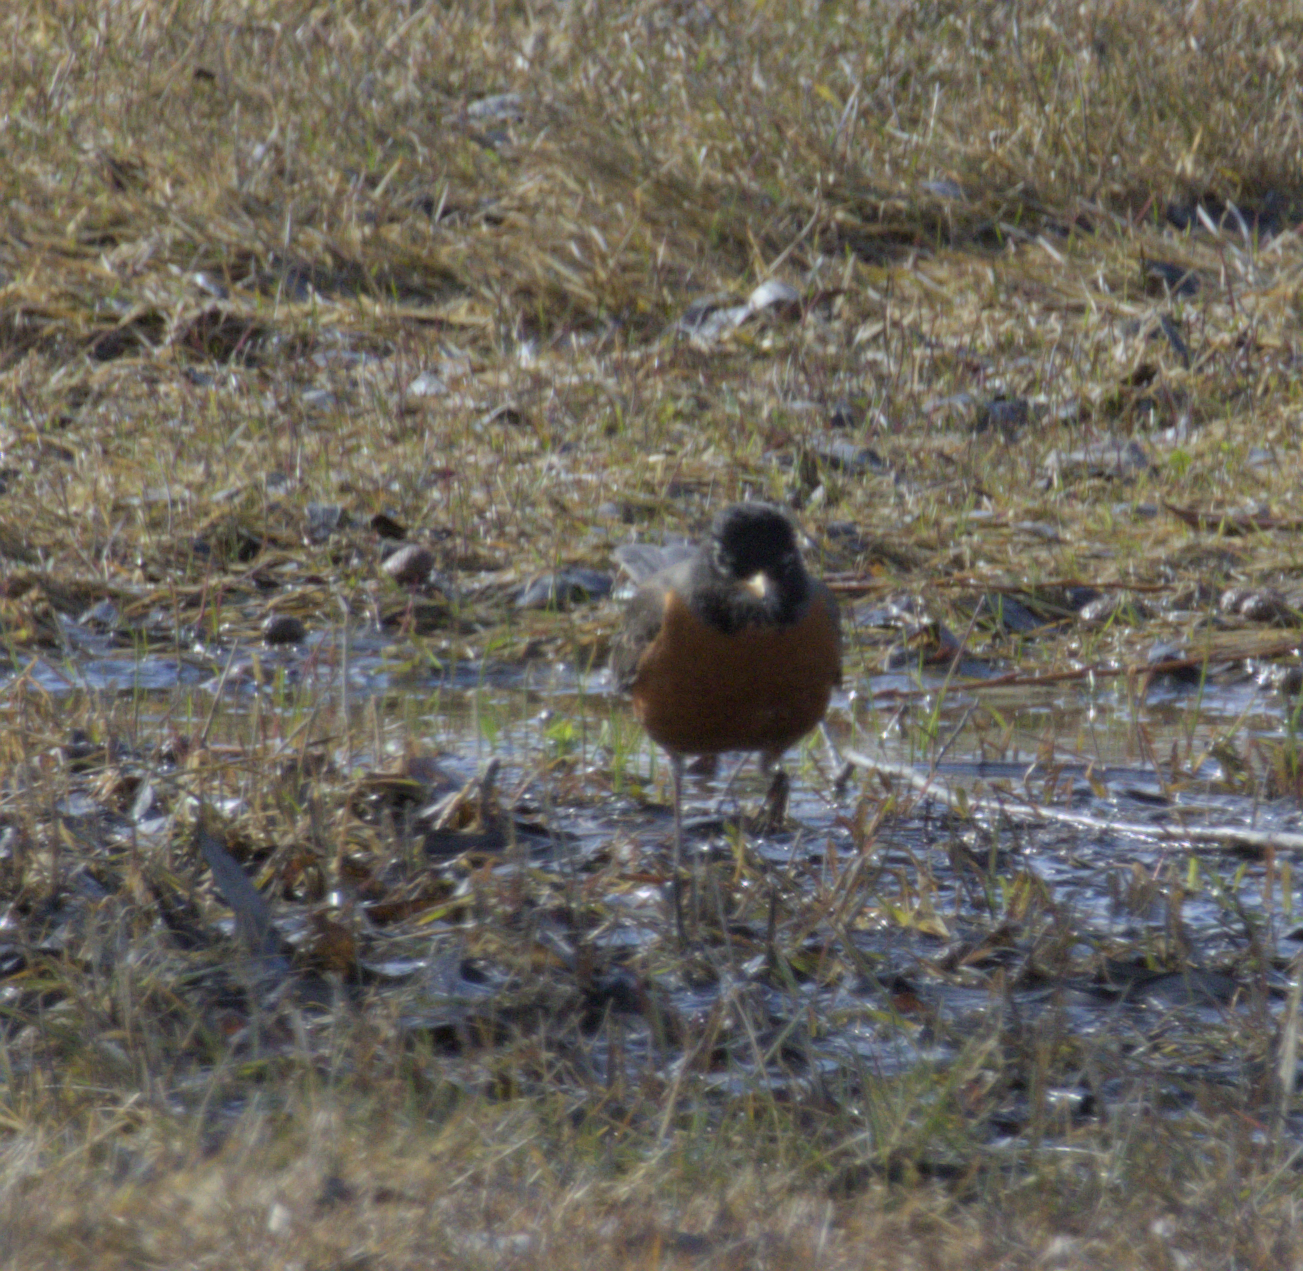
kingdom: Animalia
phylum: Chordata
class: Aves
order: Passeriformes
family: Turdidae
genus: Turdus
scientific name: Turdus migratorius
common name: American robin
